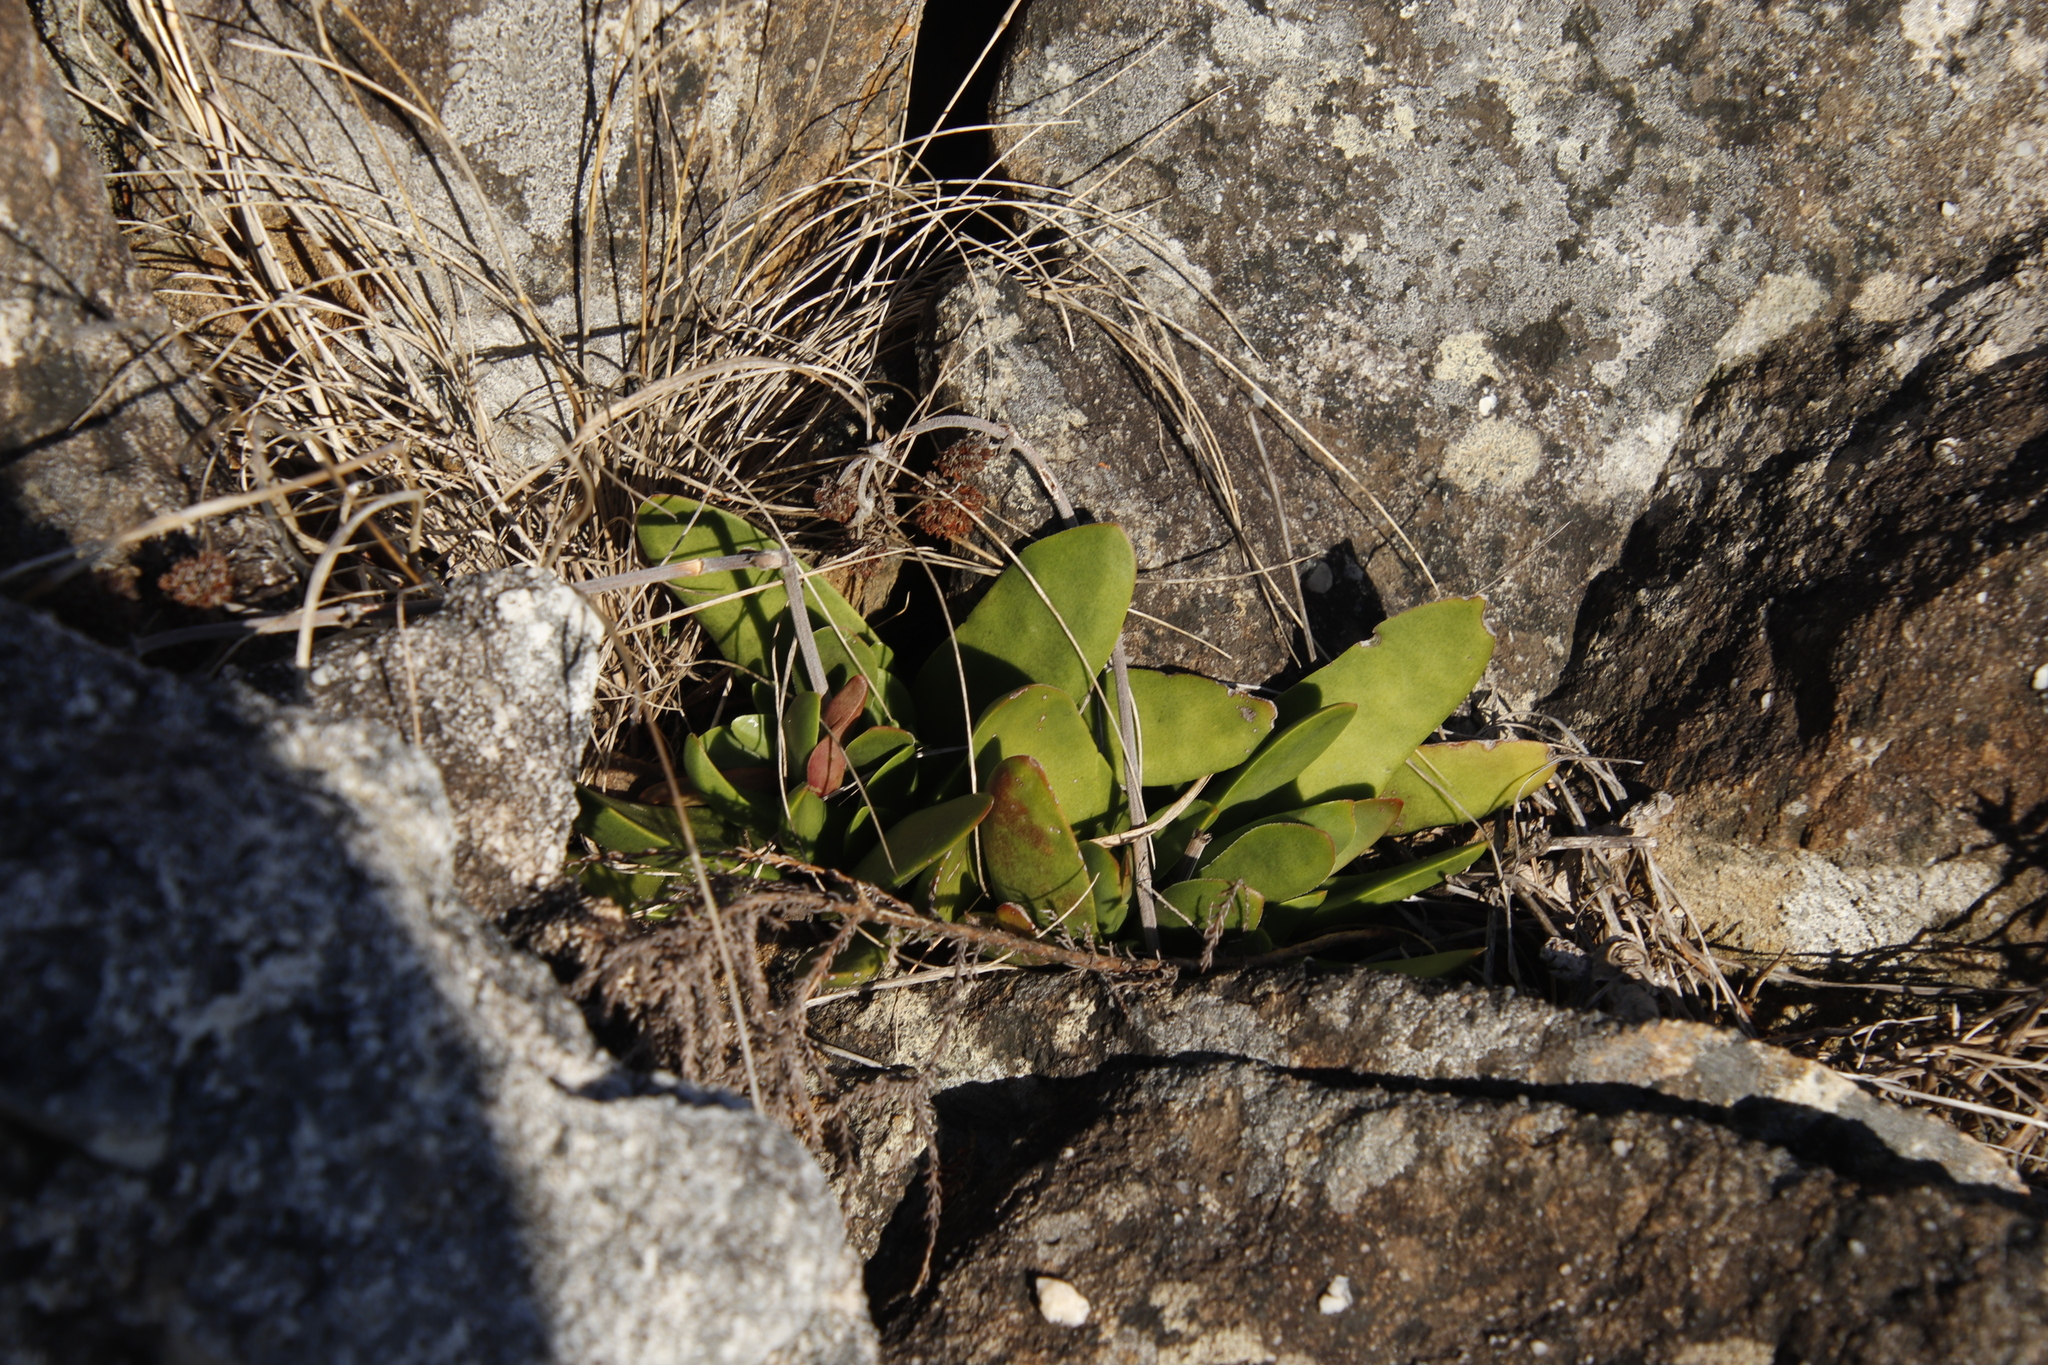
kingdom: Plantae
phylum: Tracheophyta
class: Magnoliopsida
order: Saxifragales
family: Crassulaceae
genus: Crassula
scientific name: Crassula nudicaulis
